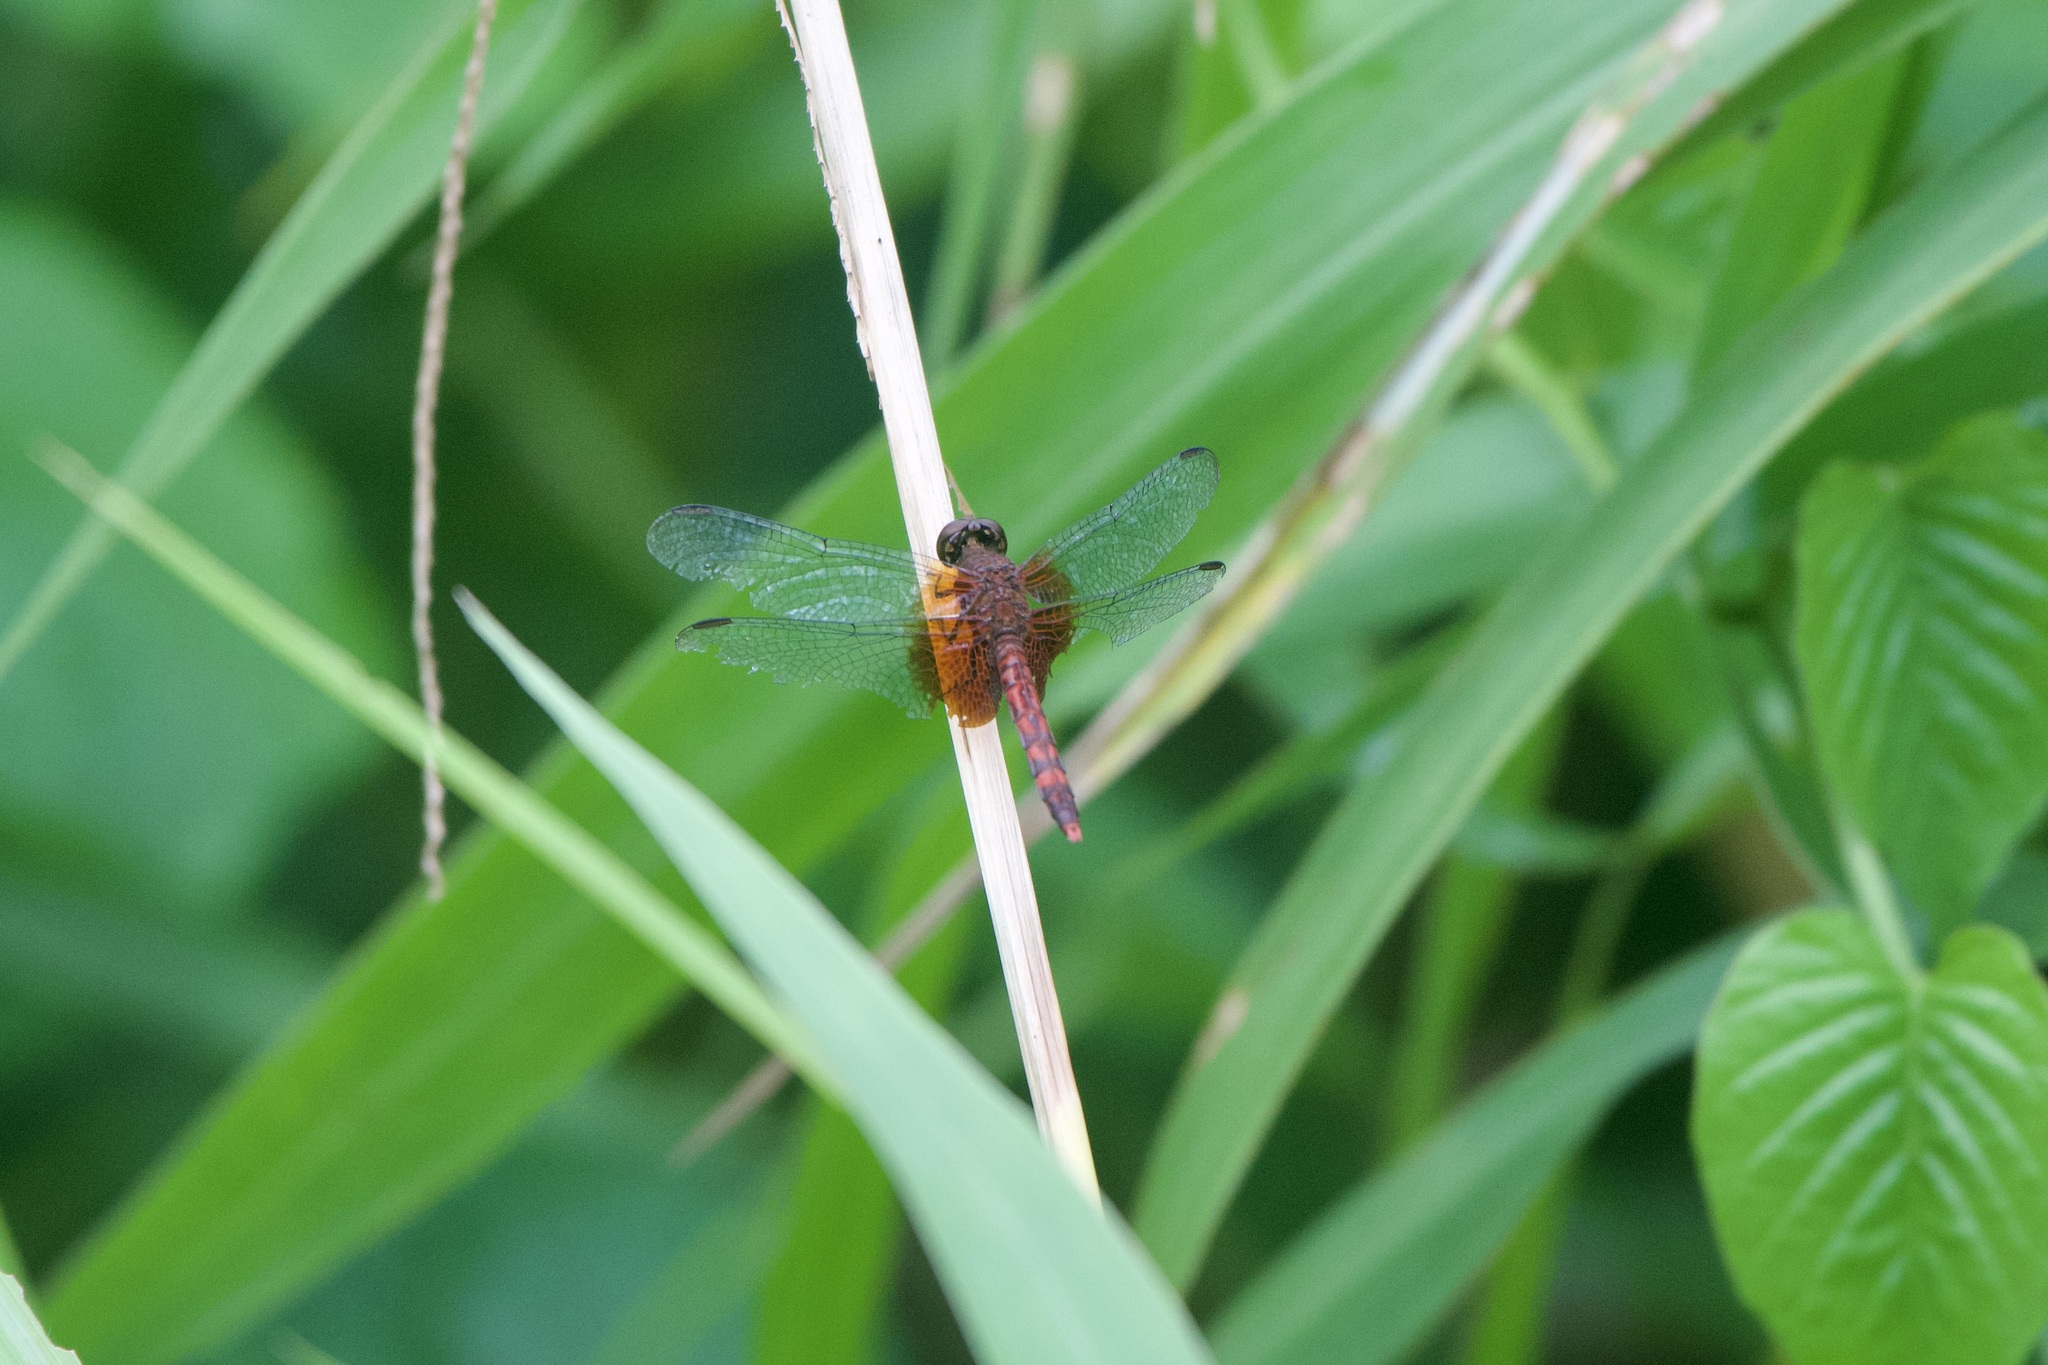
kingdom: Animalia
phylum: Arthropoda
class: Insecta
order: Odonata
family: Libellulidae
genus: Erythrodiplax
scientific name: Erythrodiplax fervida
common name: Red-mantled dragonlet
